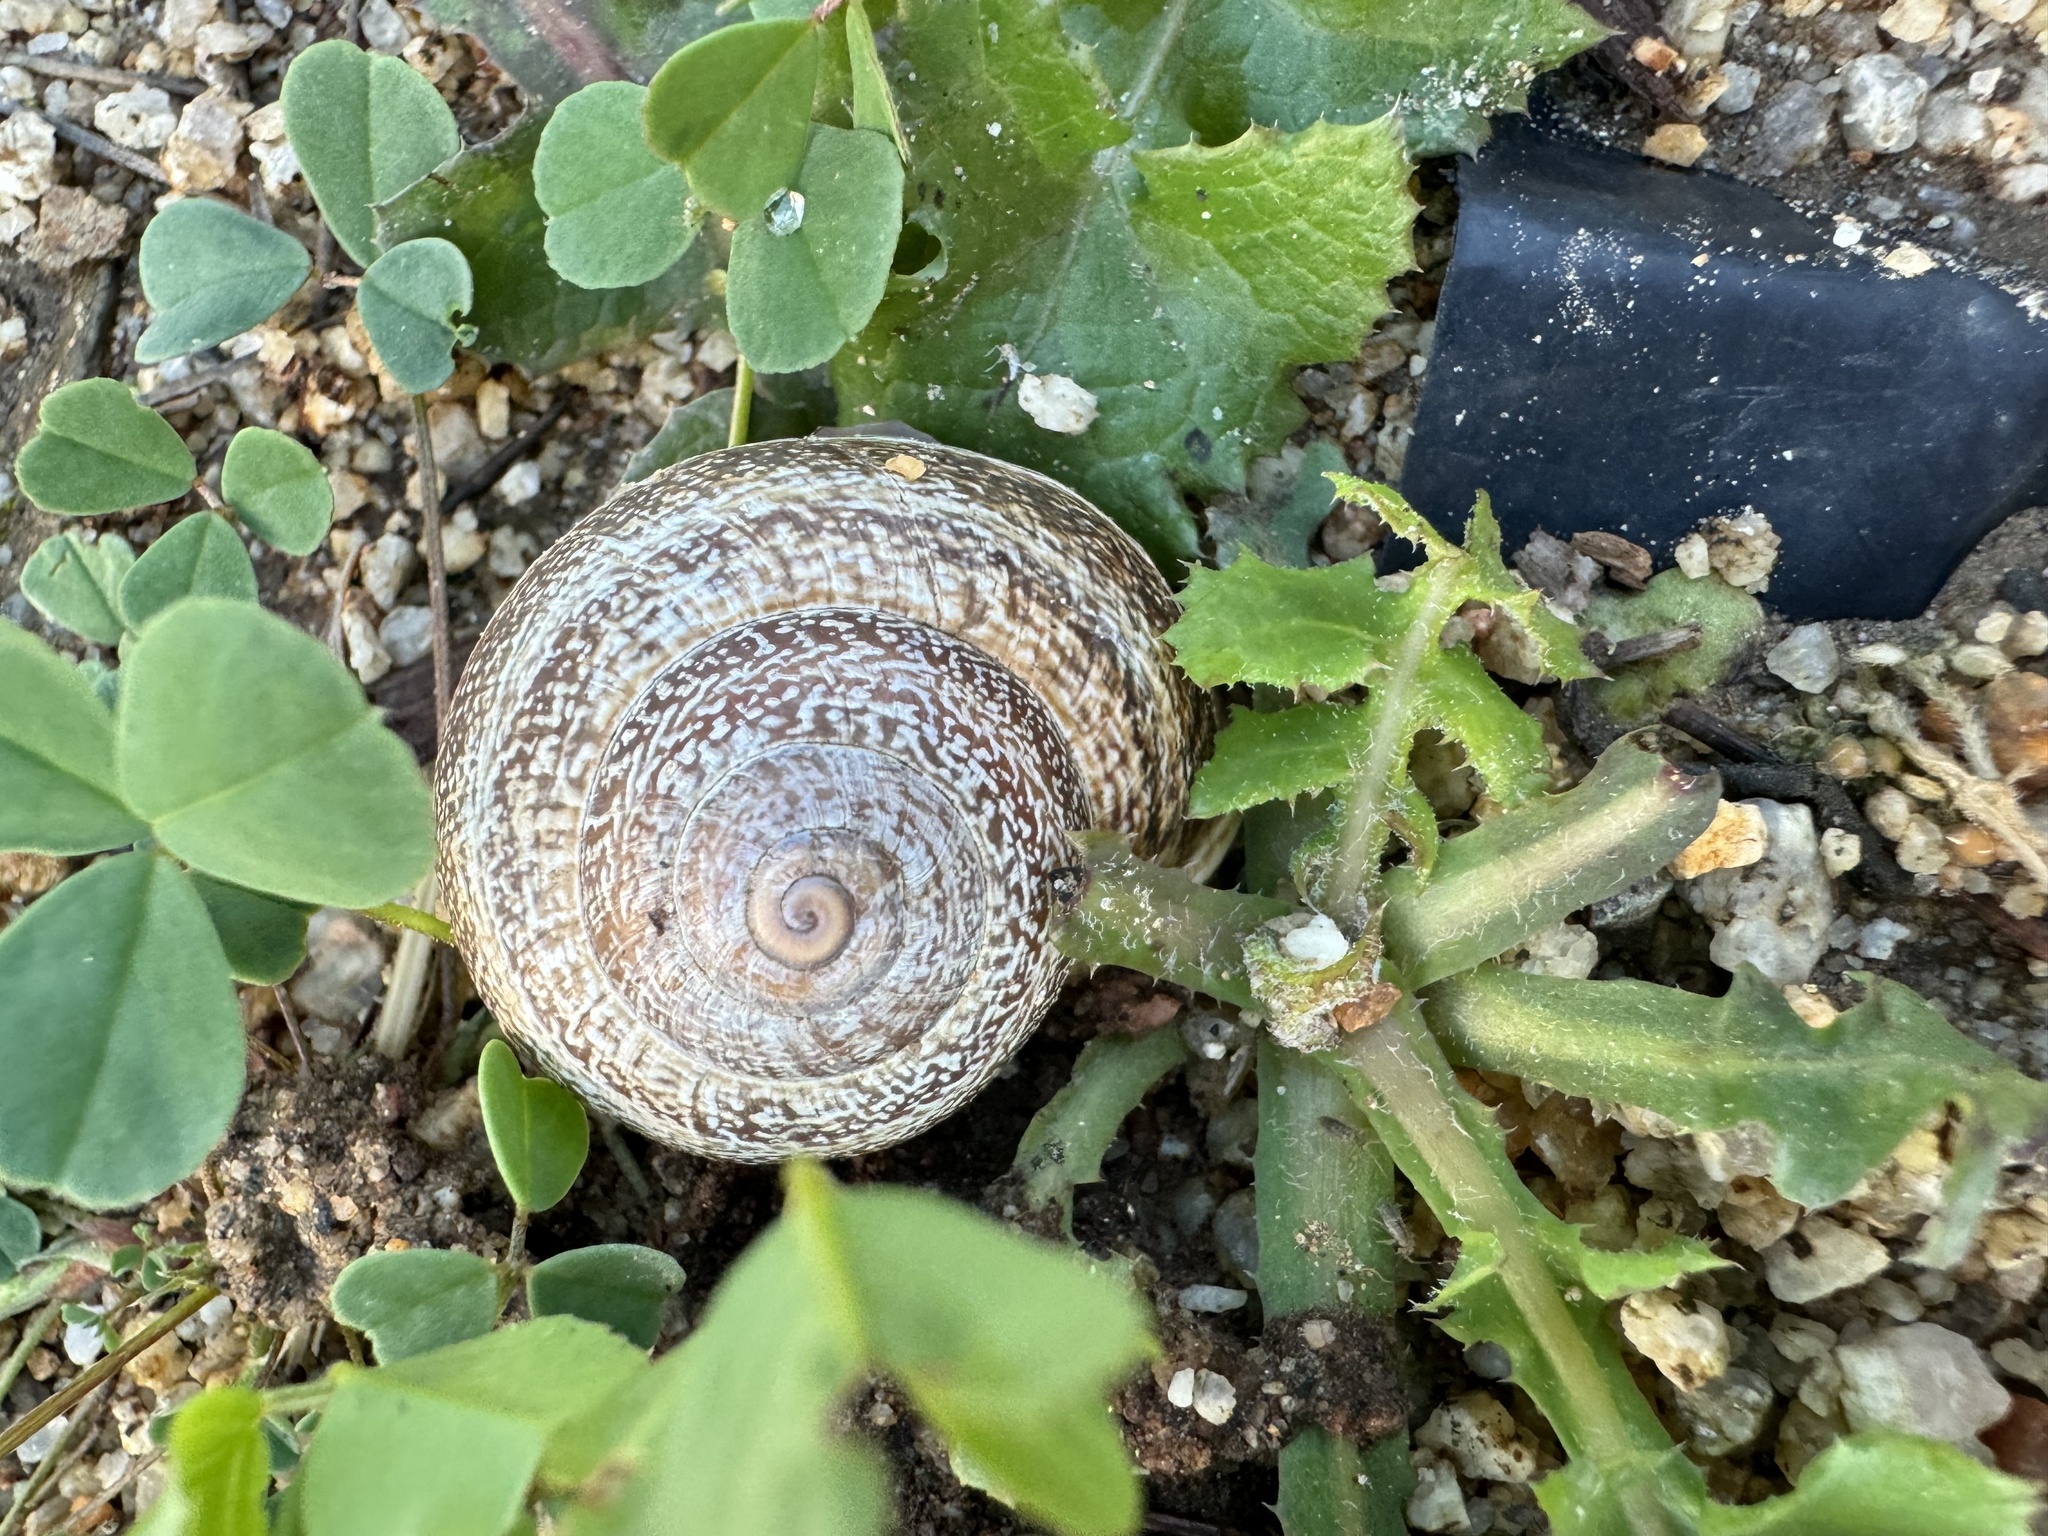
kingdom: Animalia
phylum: Mollusca
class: Gastropoda
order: Stylommatophora
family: Helicidae
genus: Otala
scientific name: Otala lactea
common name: Milk snail
